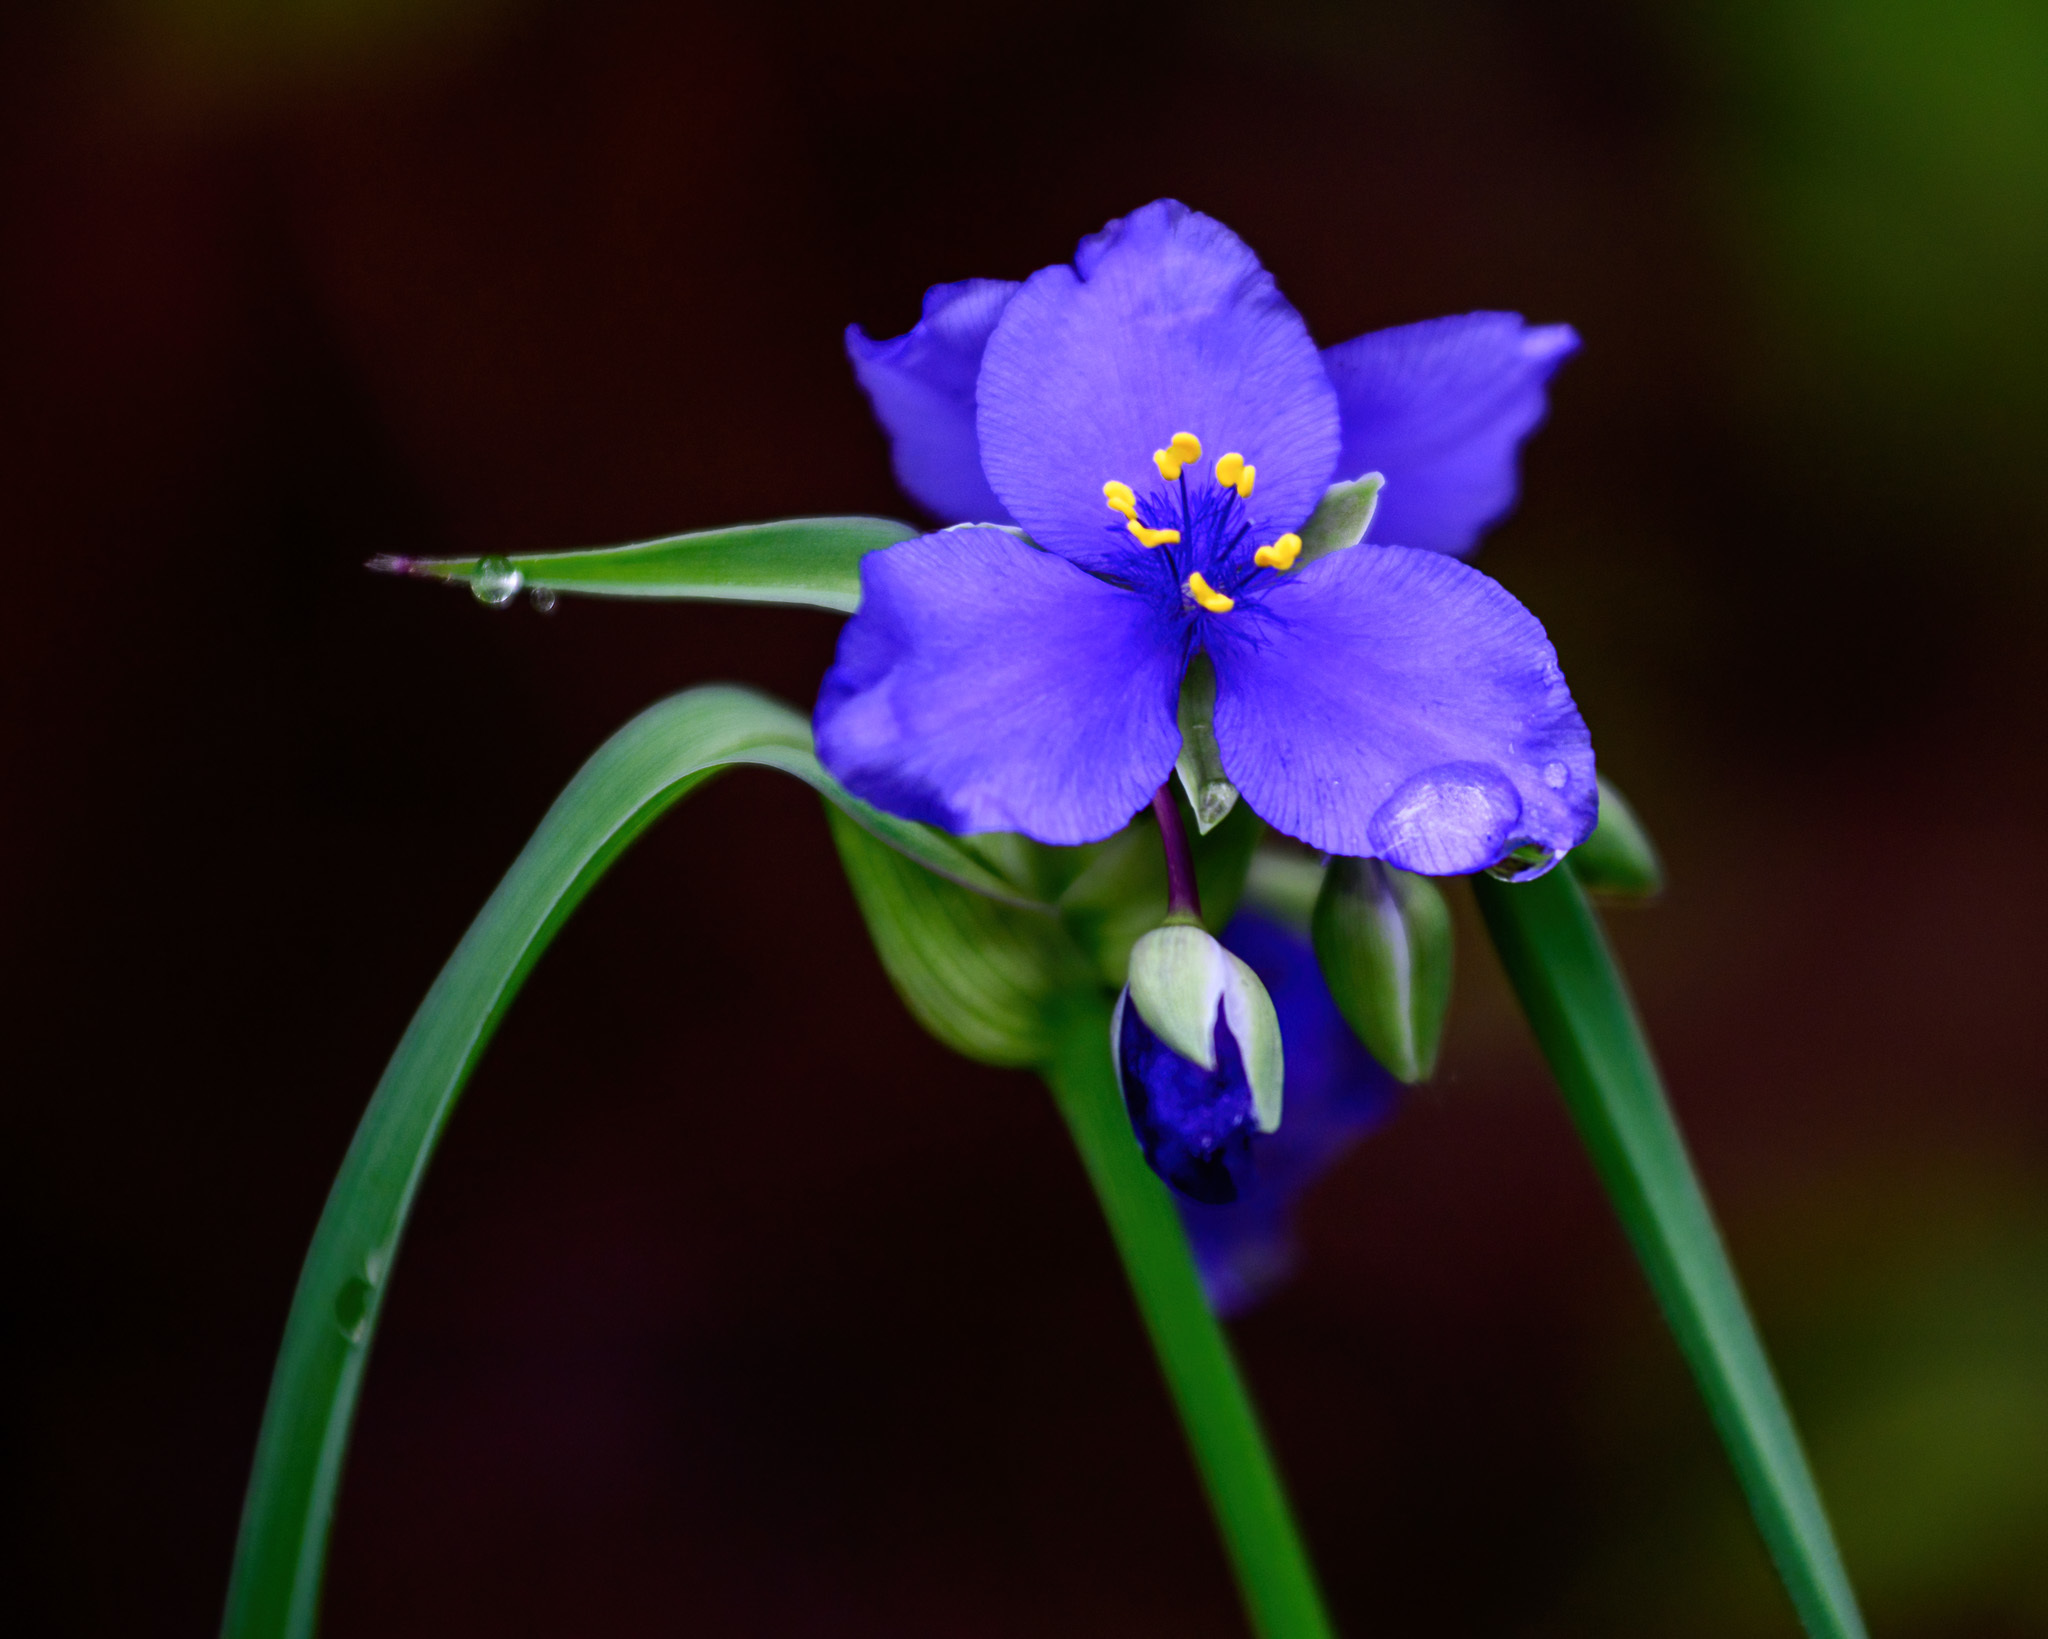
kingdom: Plantae
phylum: Tracheophyta
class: Liliopsida
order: Commelinales
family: Commelinaceae
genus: Tradescantia
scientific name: Tradescantia virginiana
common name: Spiderwort
